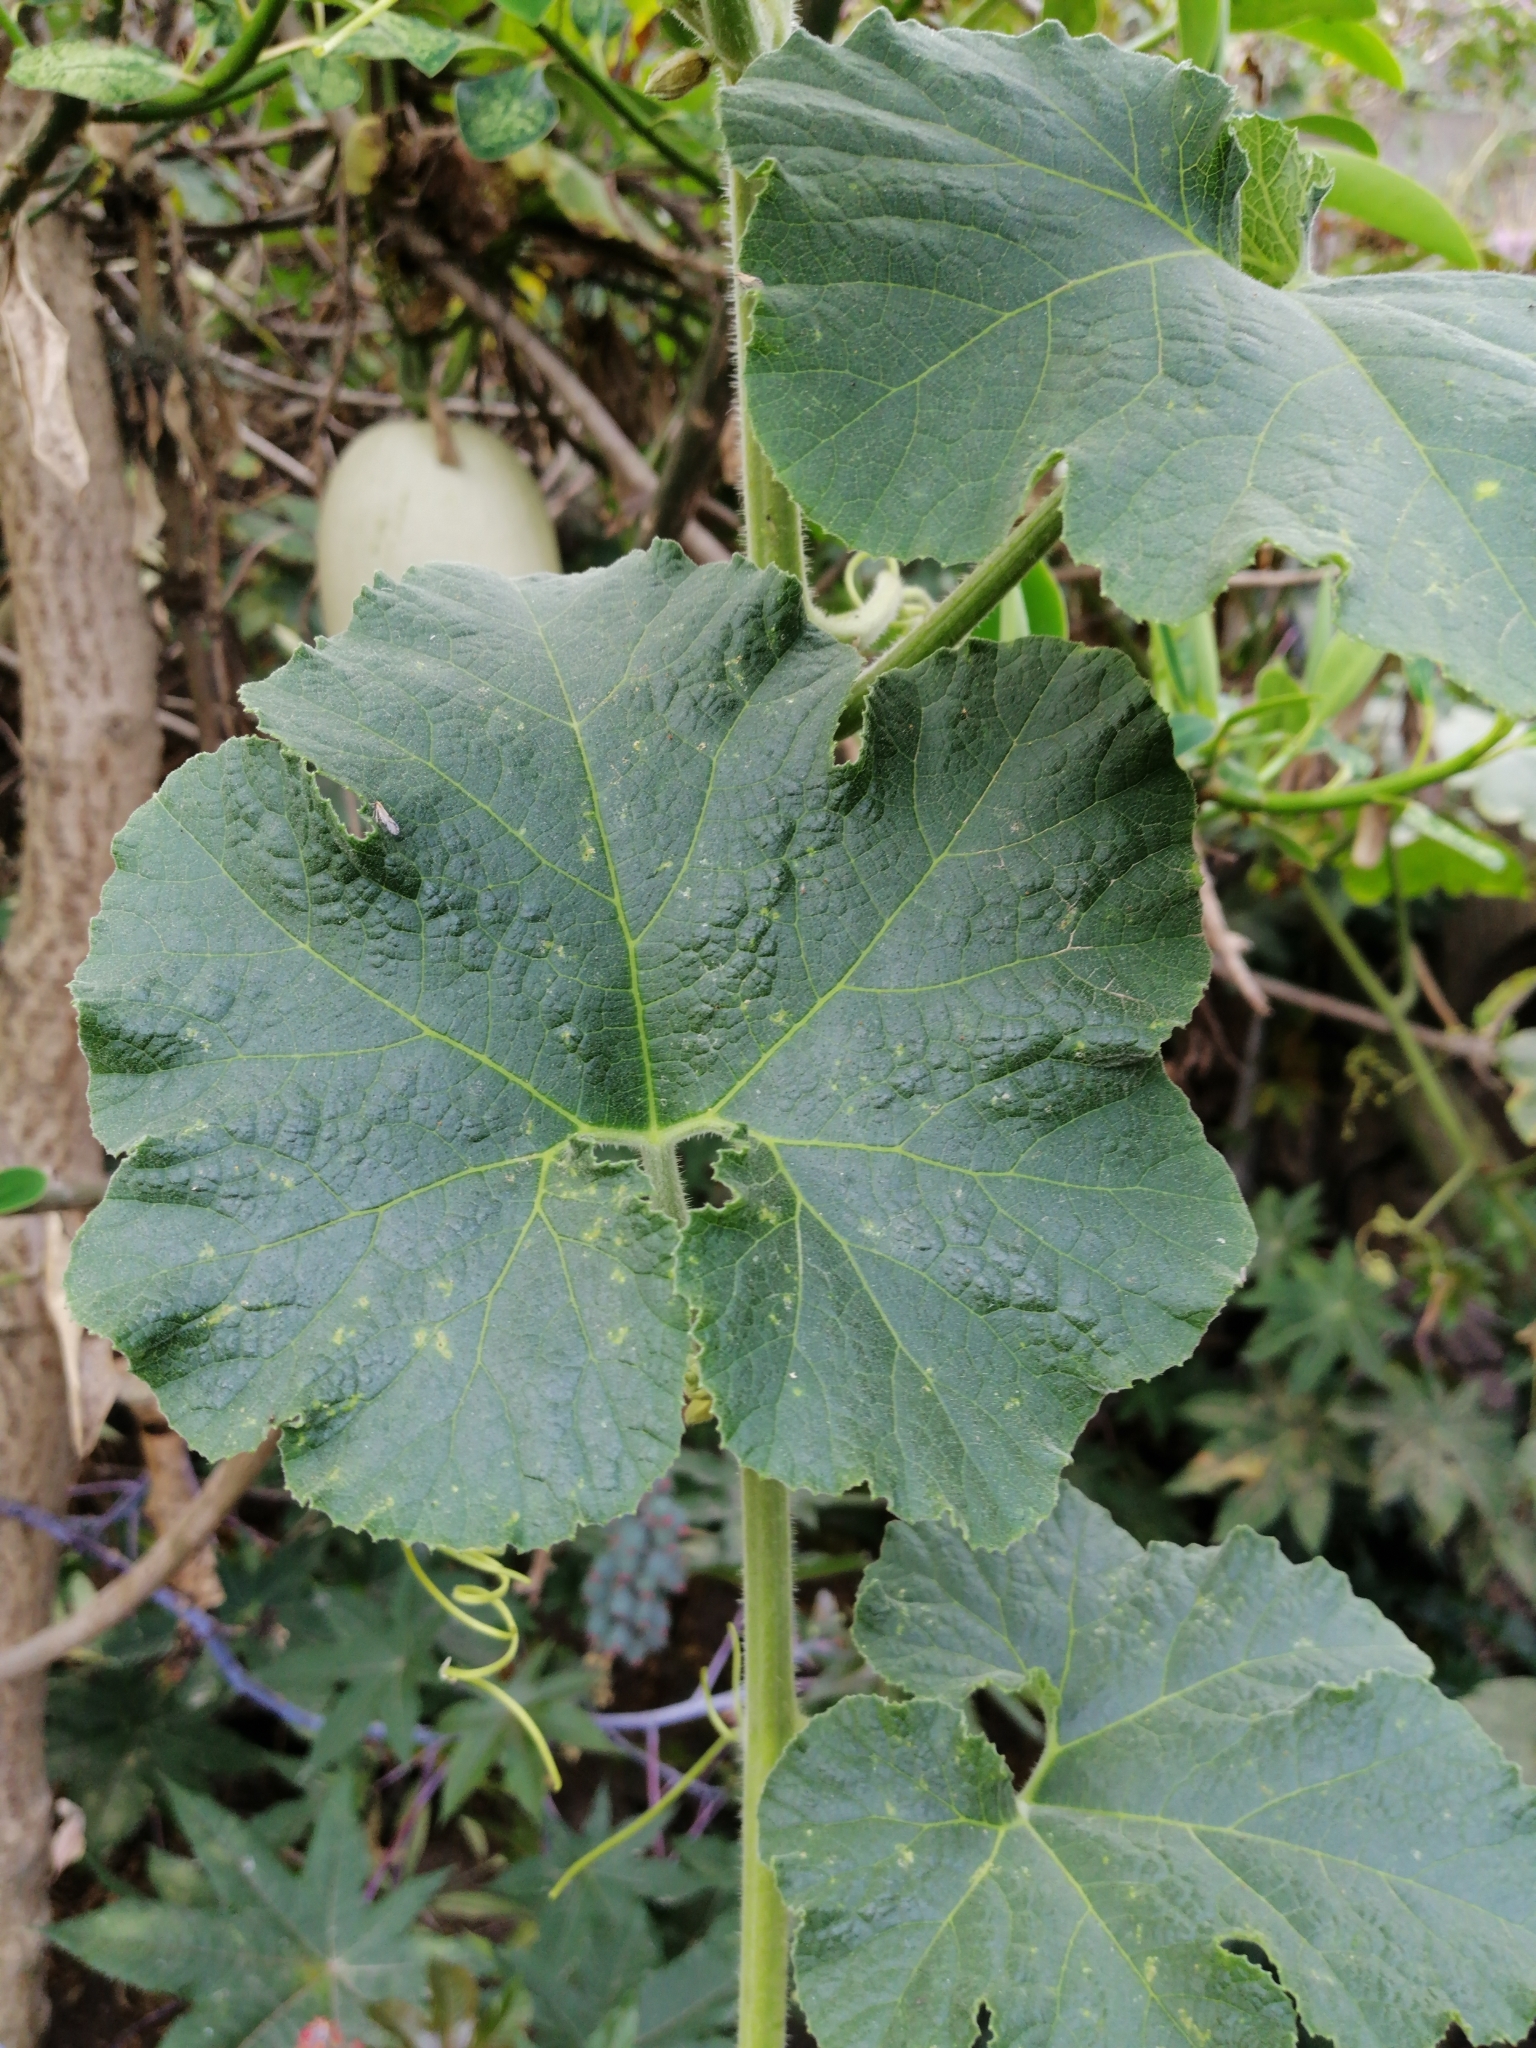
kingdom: Plantae
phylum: Tracheophyta
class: Magnoliopsida
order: Cucurbitales
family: Cucurbitaceae
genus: Cucurbita
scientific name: Cucurbita ficifolia
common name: Figleaf gourd
